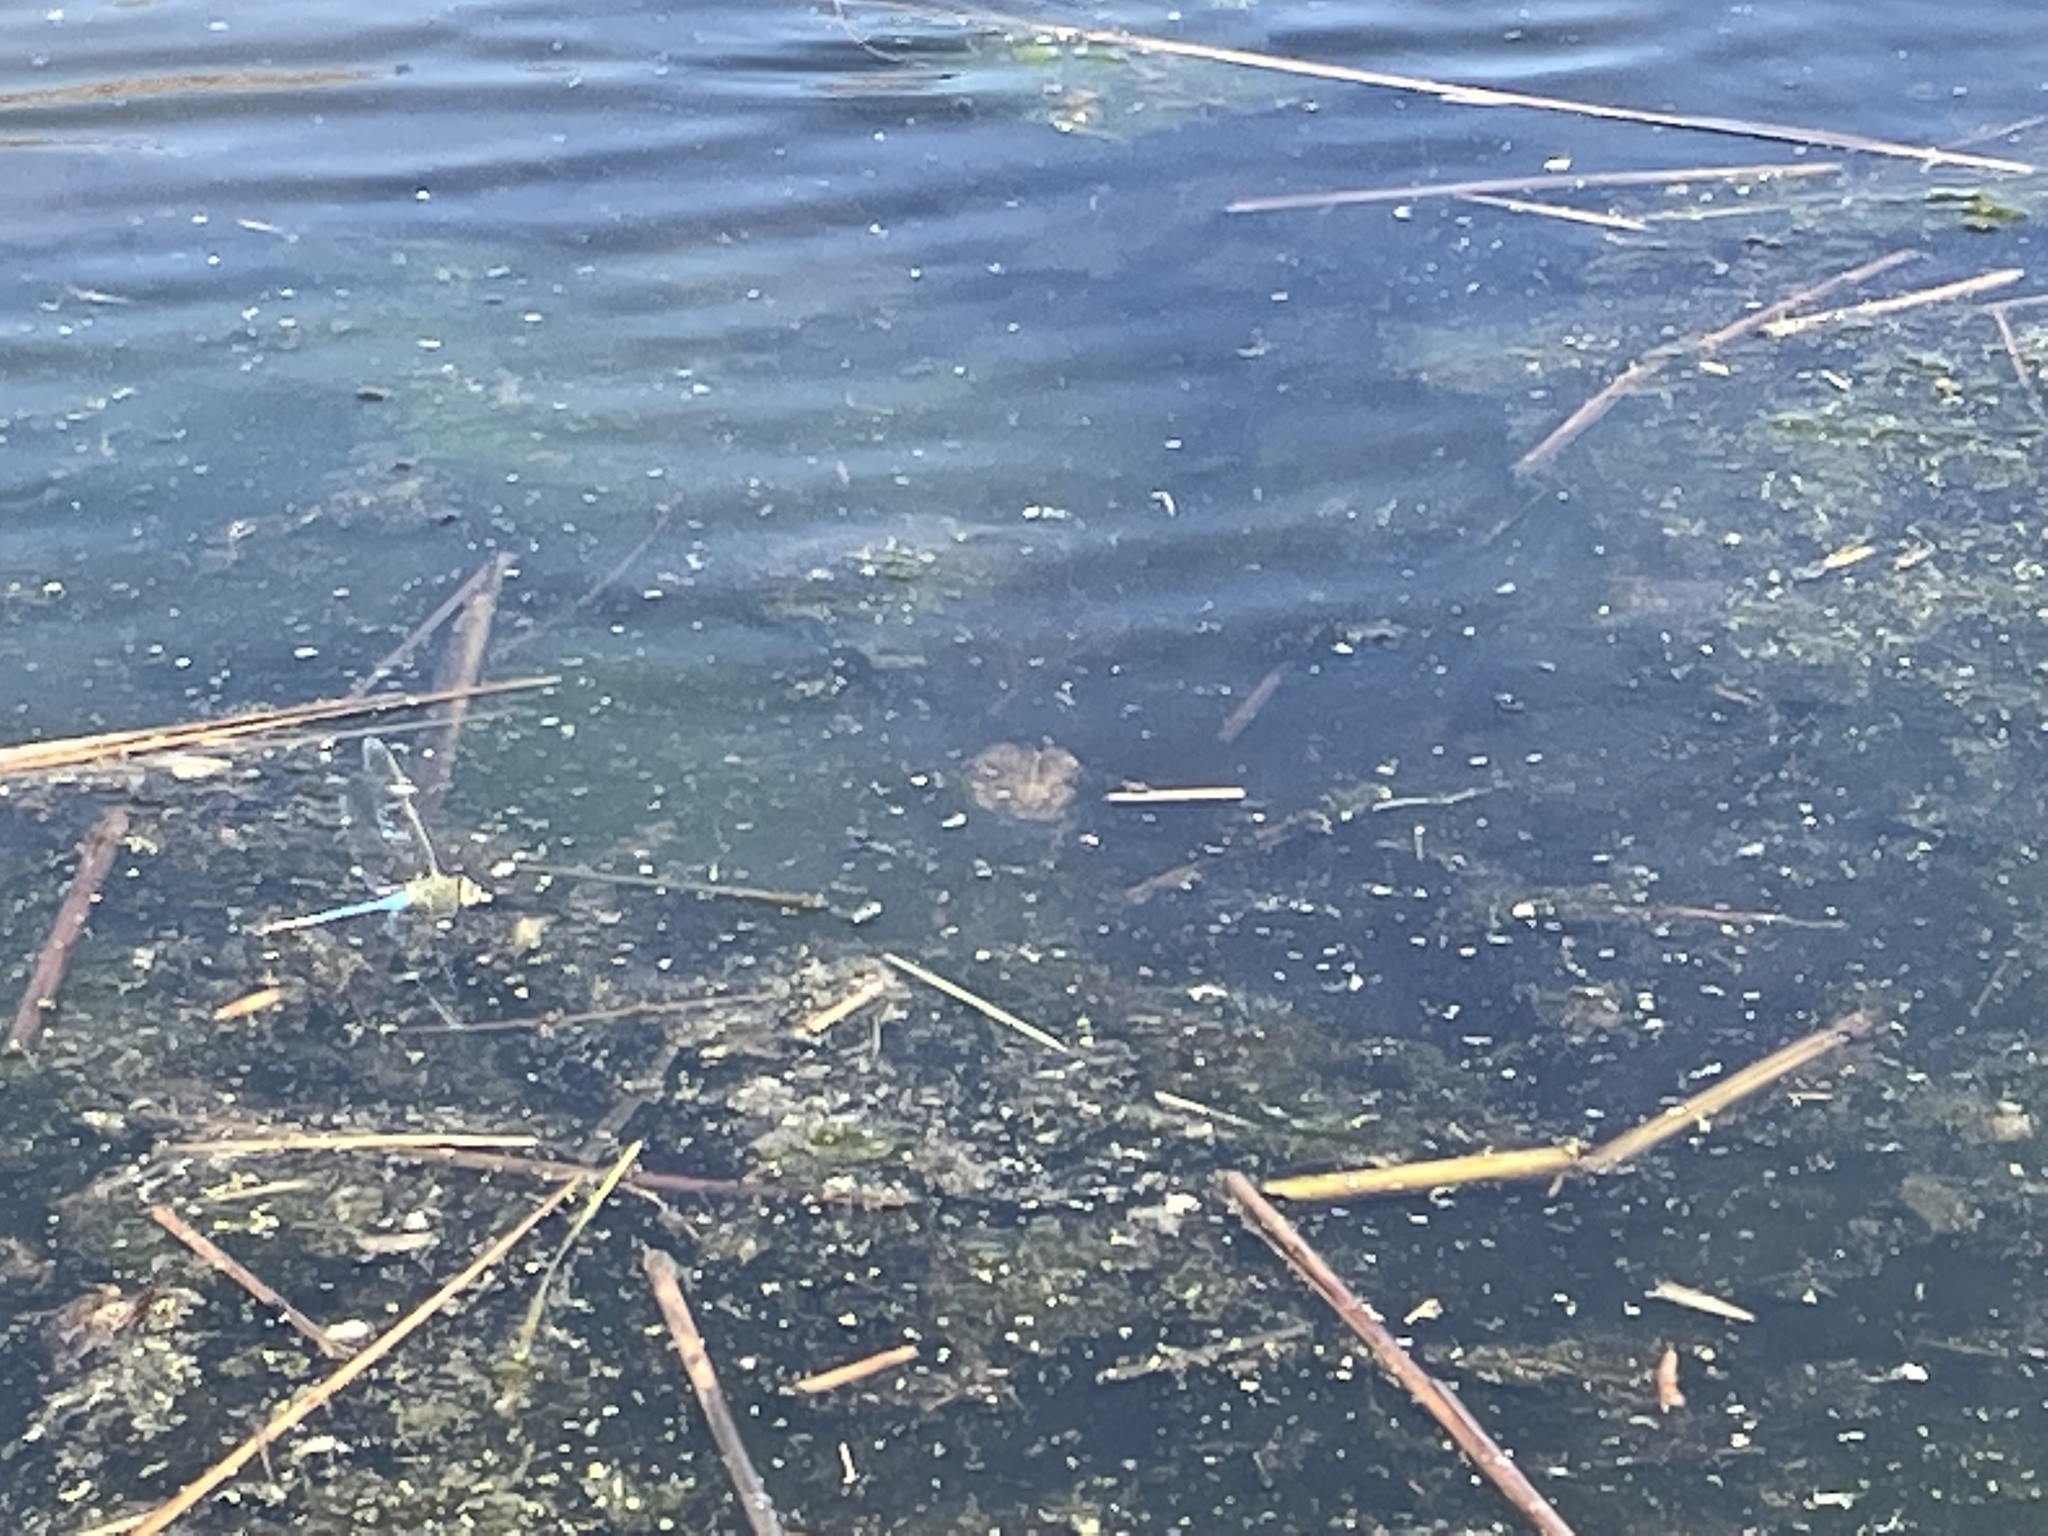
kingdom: Animalia
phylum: Chordata
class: Amphibia
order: Anura
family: Bufonidae
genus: Anaxyrus
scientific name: Anaxyrus americanus
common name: American toad
